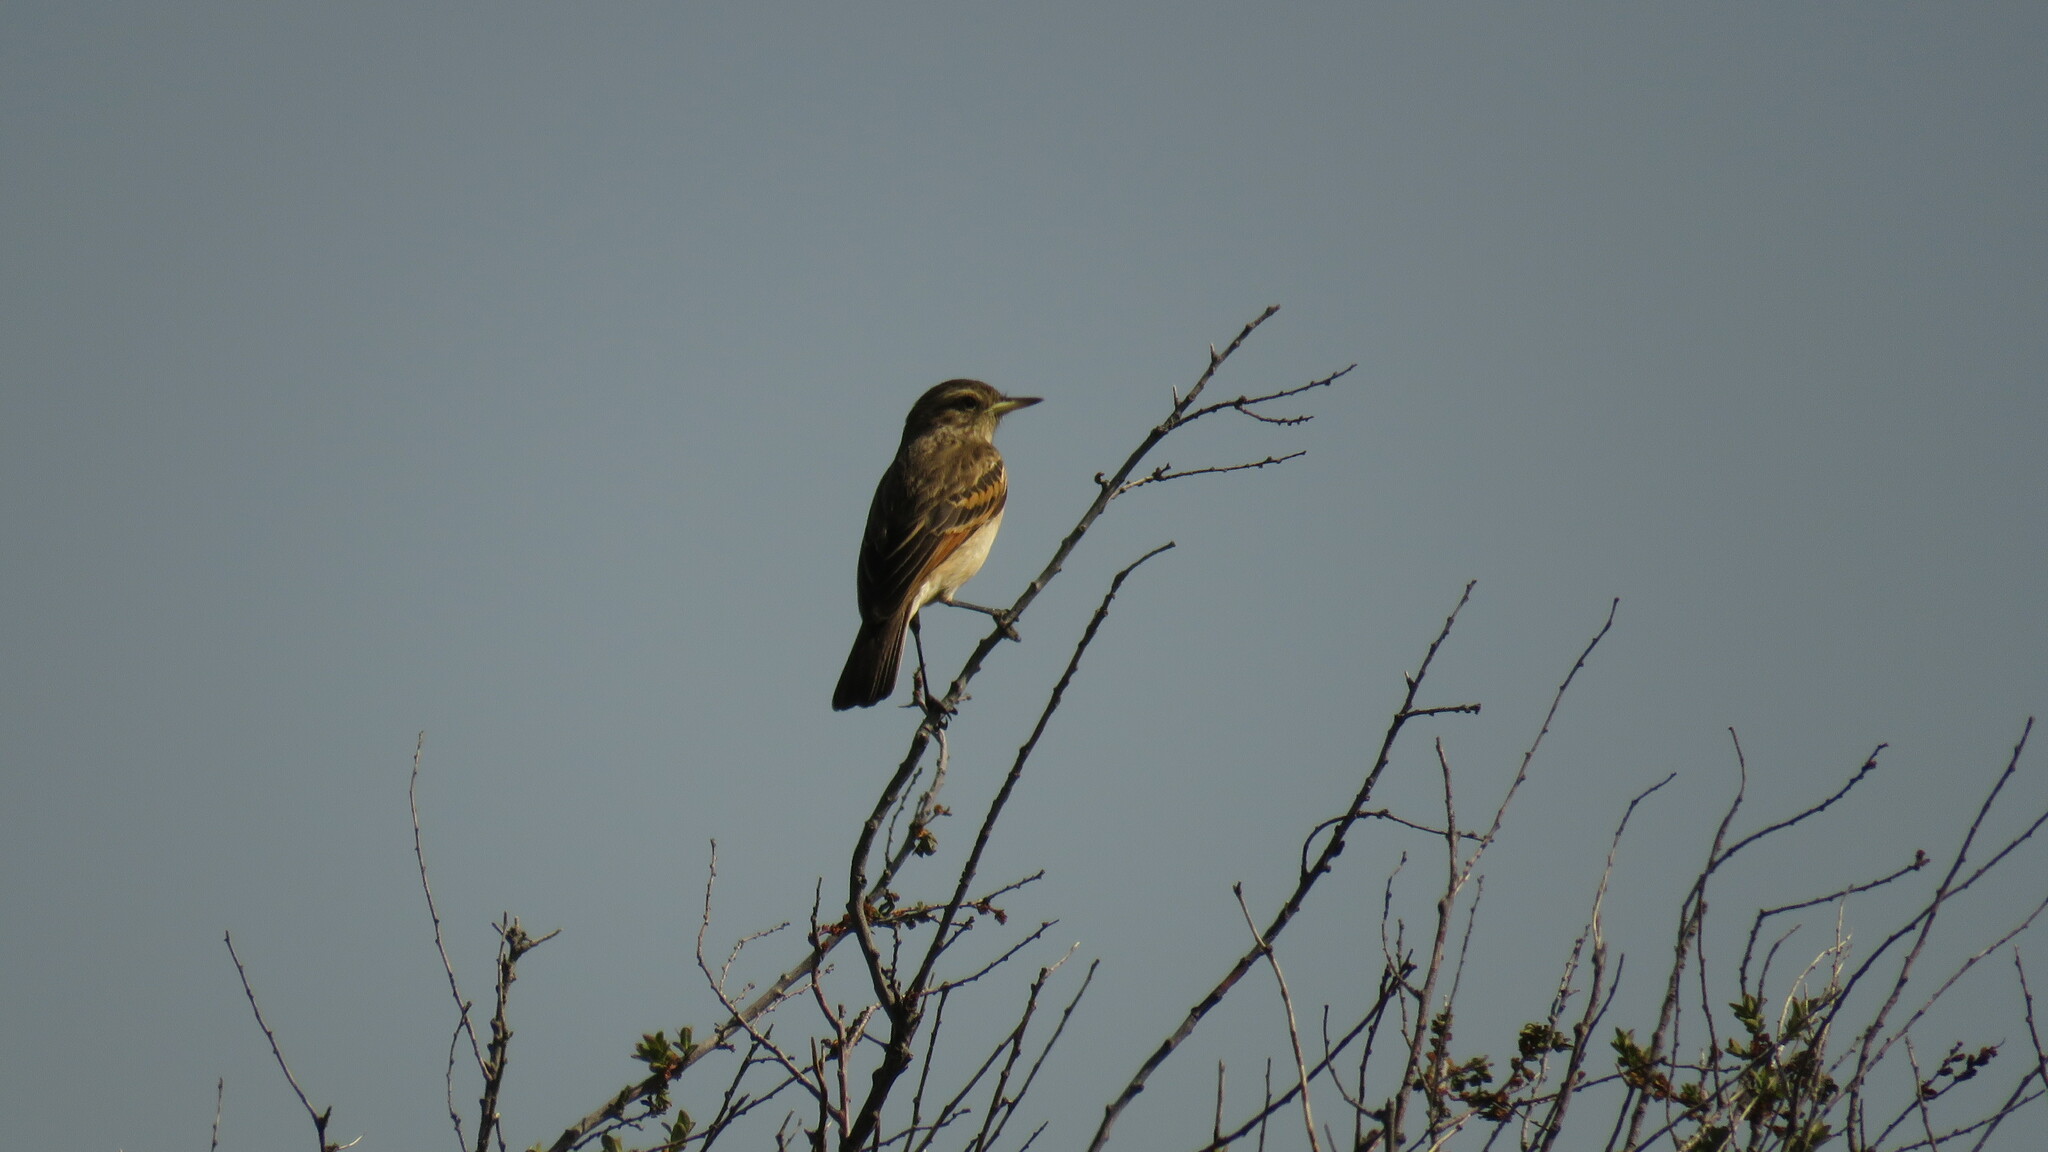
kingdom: Animalia
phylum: Chordata
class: Aves
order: Passeriformes
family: Tyrannidae
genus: Hymenops
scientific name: Hymenops perspicillatus
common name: Spectacled tyrant
